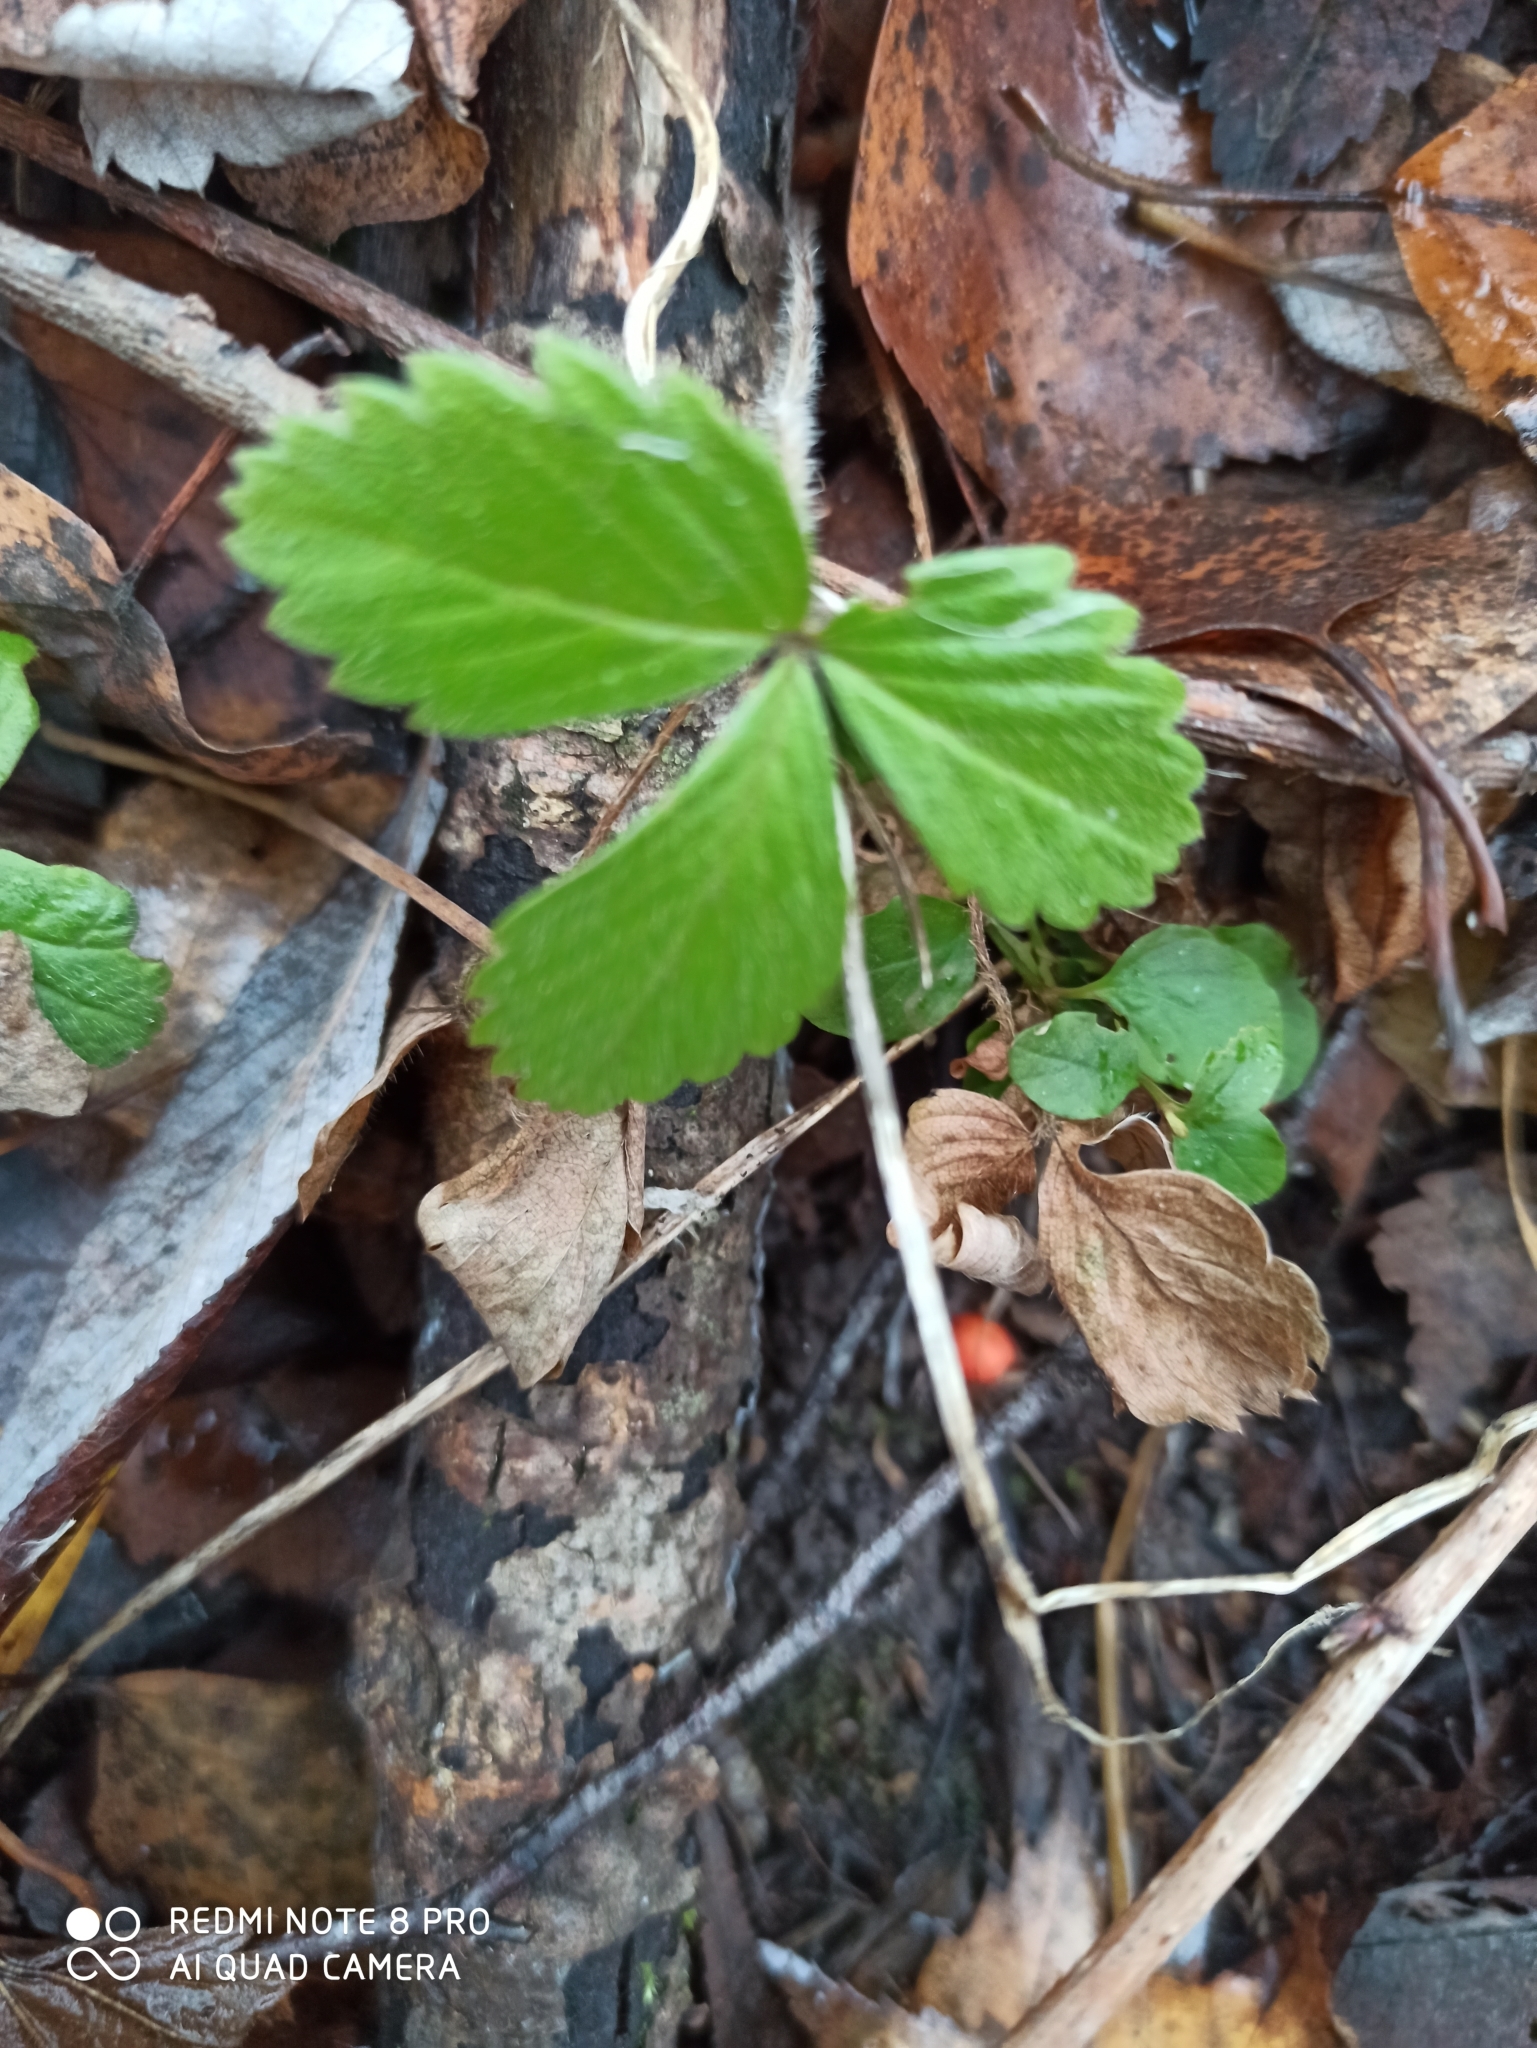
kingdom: Plantae
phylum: Tracheophyta
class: Magnoliopsida
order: Rosales
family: Rosaceae
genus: Fragaria
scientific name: Fragaria vesca
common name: Wild strawberry
